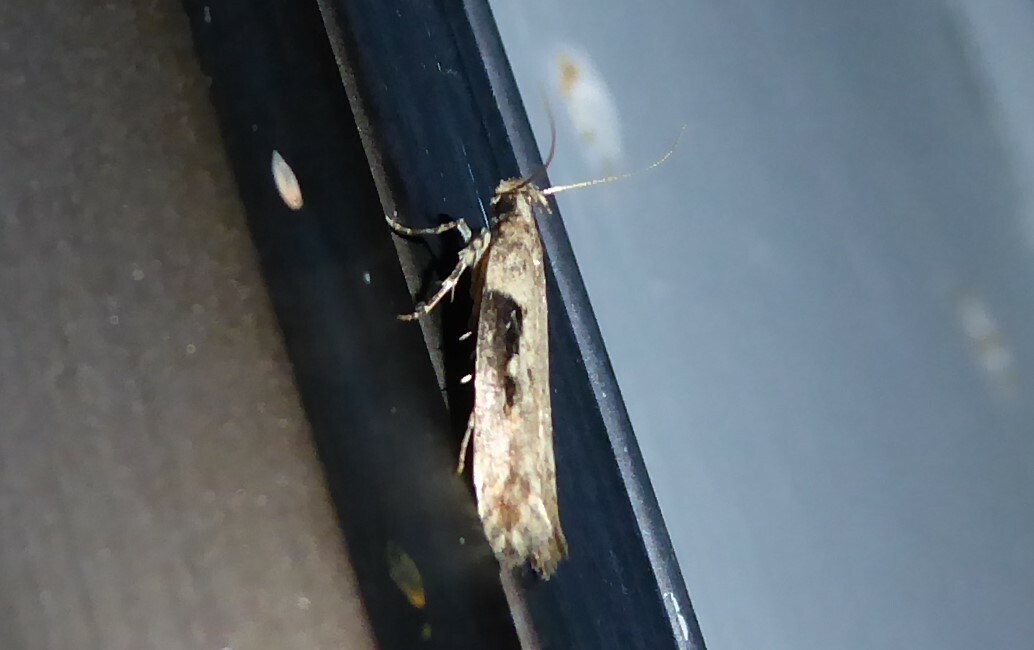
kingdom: Animalia
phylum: Arthropoda
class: Insecta
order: Lepidoptera
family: Gelechiidae
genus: Symmetrischema
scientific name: Symmetrischema tangolias
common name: Moth
